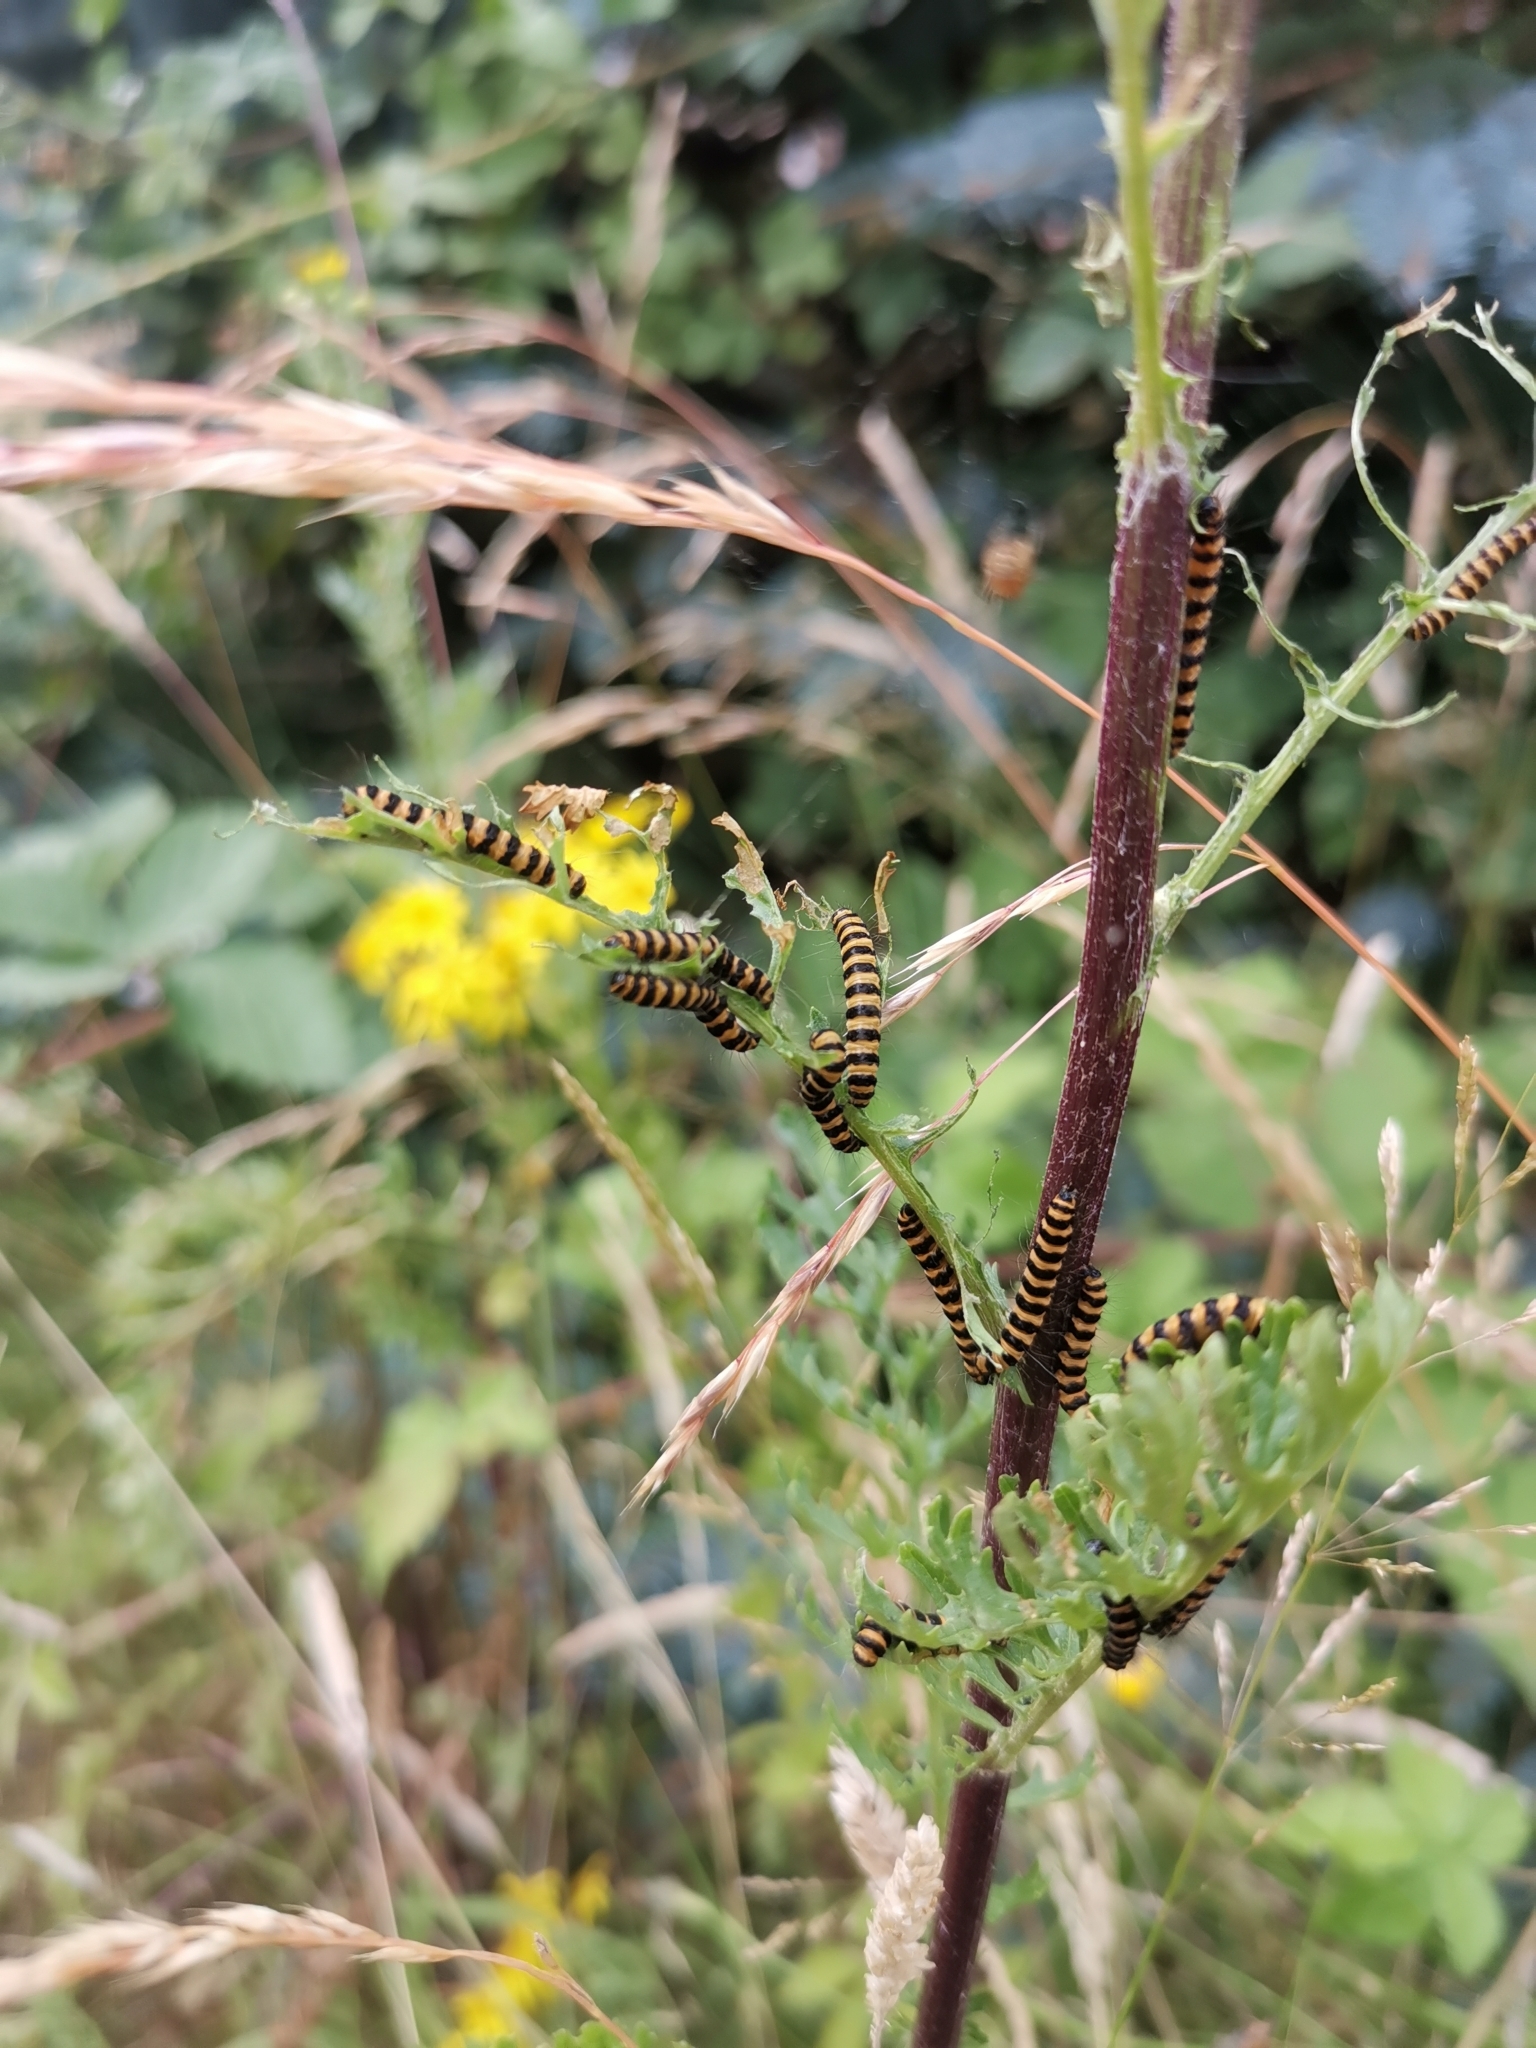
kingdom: Animalia
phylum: Arthropoda
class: Insecta
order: Lepidoptera
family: Erebidae
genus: Tyria
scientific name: Tyria jacobaeae
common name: Cinnabar
